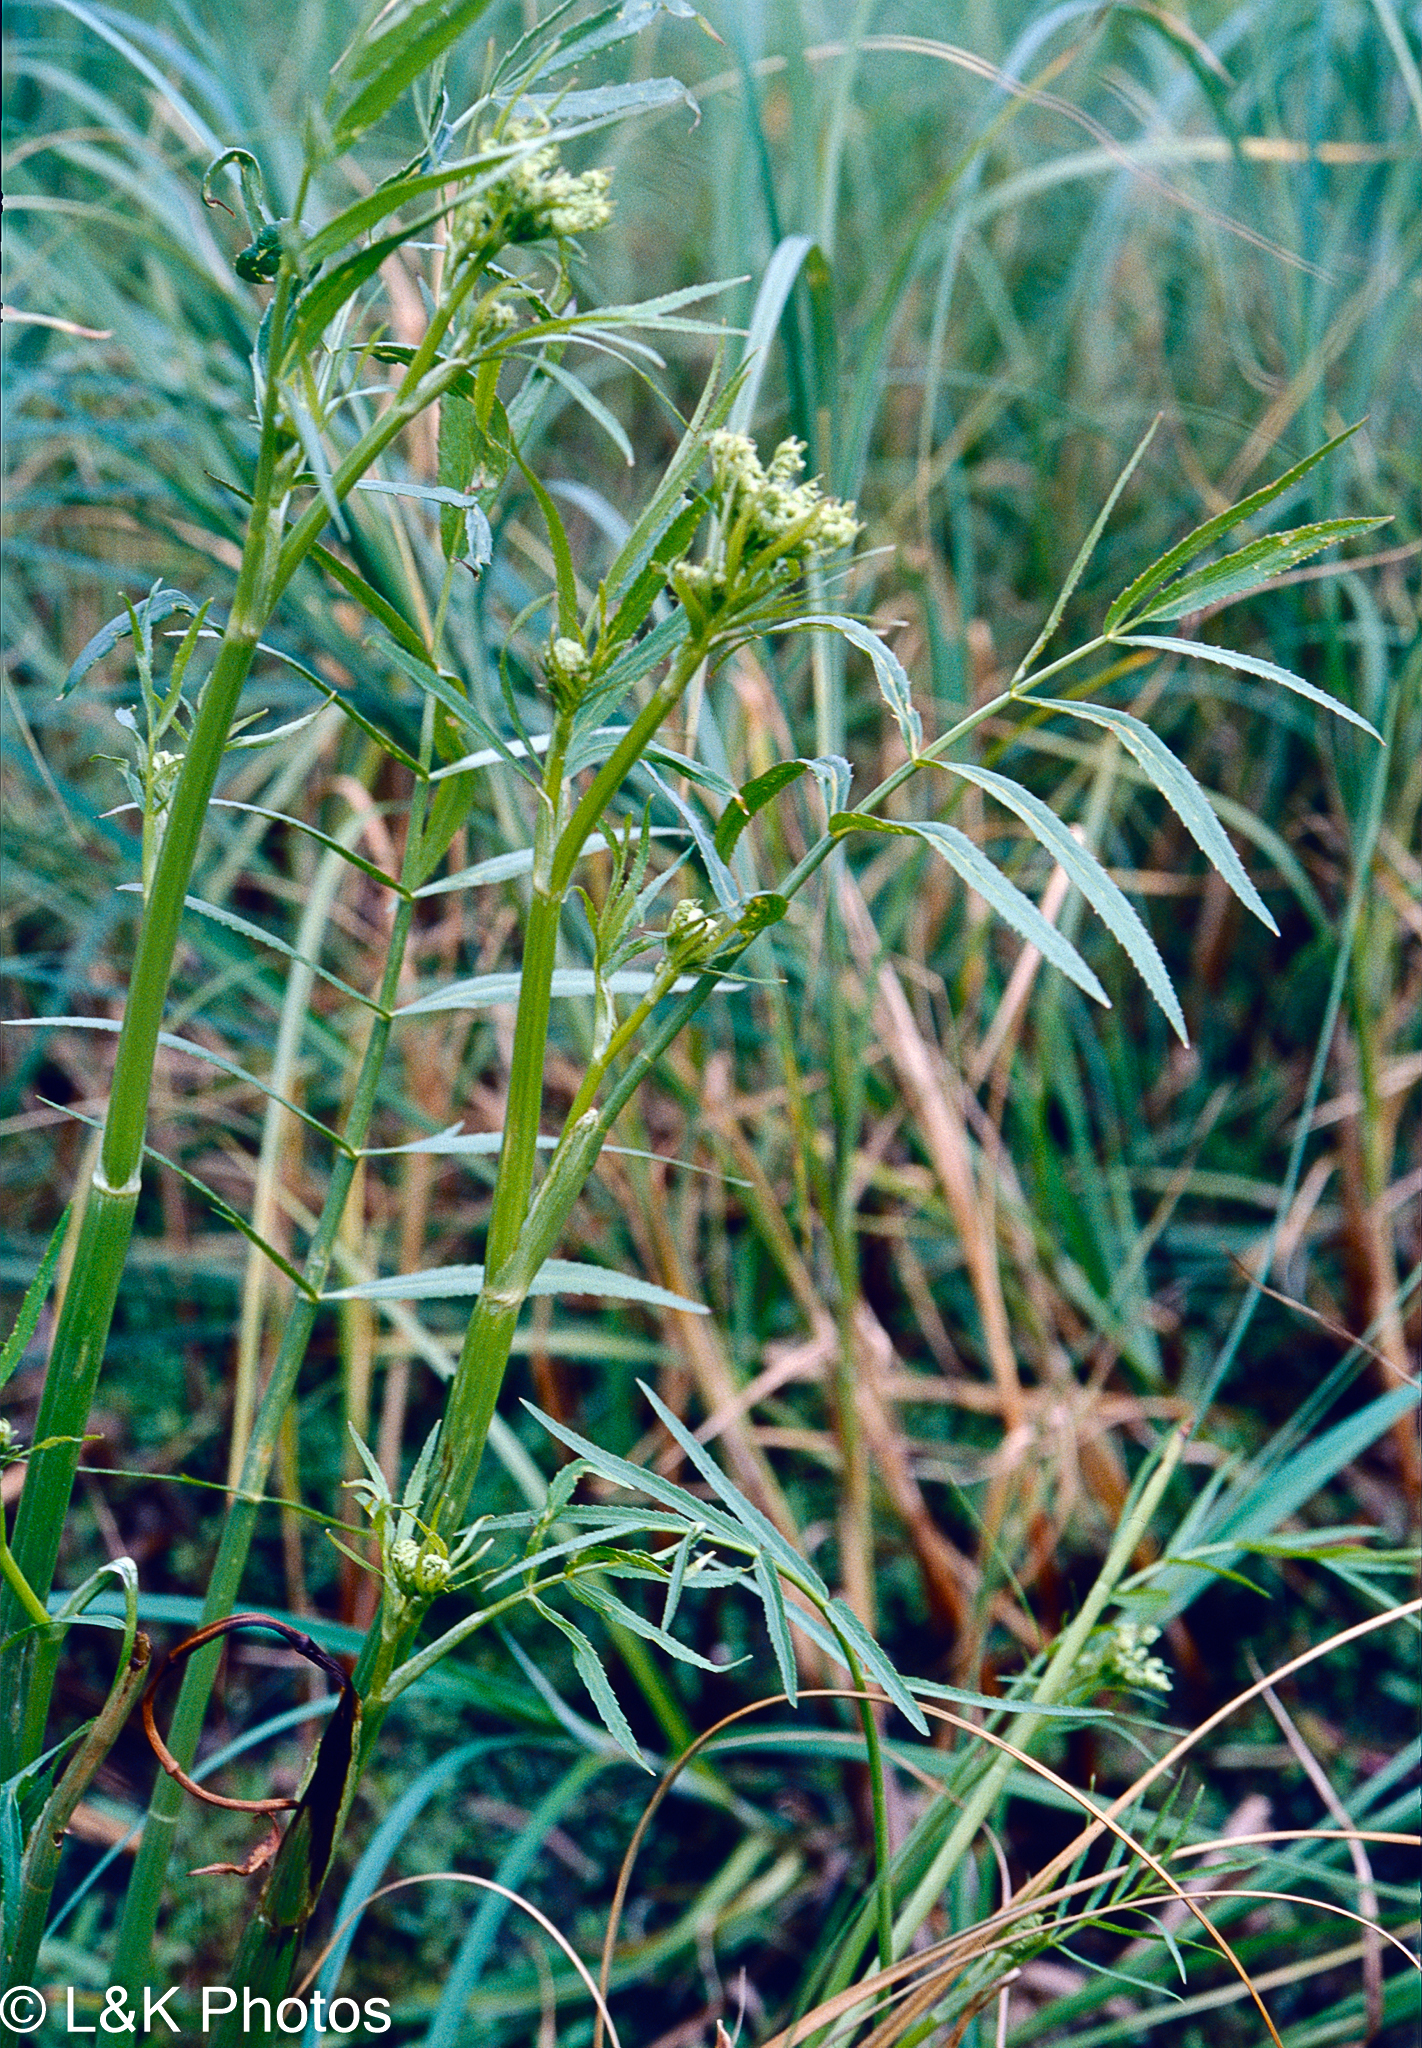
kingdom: Plantae
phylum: Tracheophyta
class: Magnoliopsida
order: Apiales
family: Apiaceae
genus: Sium
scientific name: Sium suave
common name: Hemlock water-parsnip
